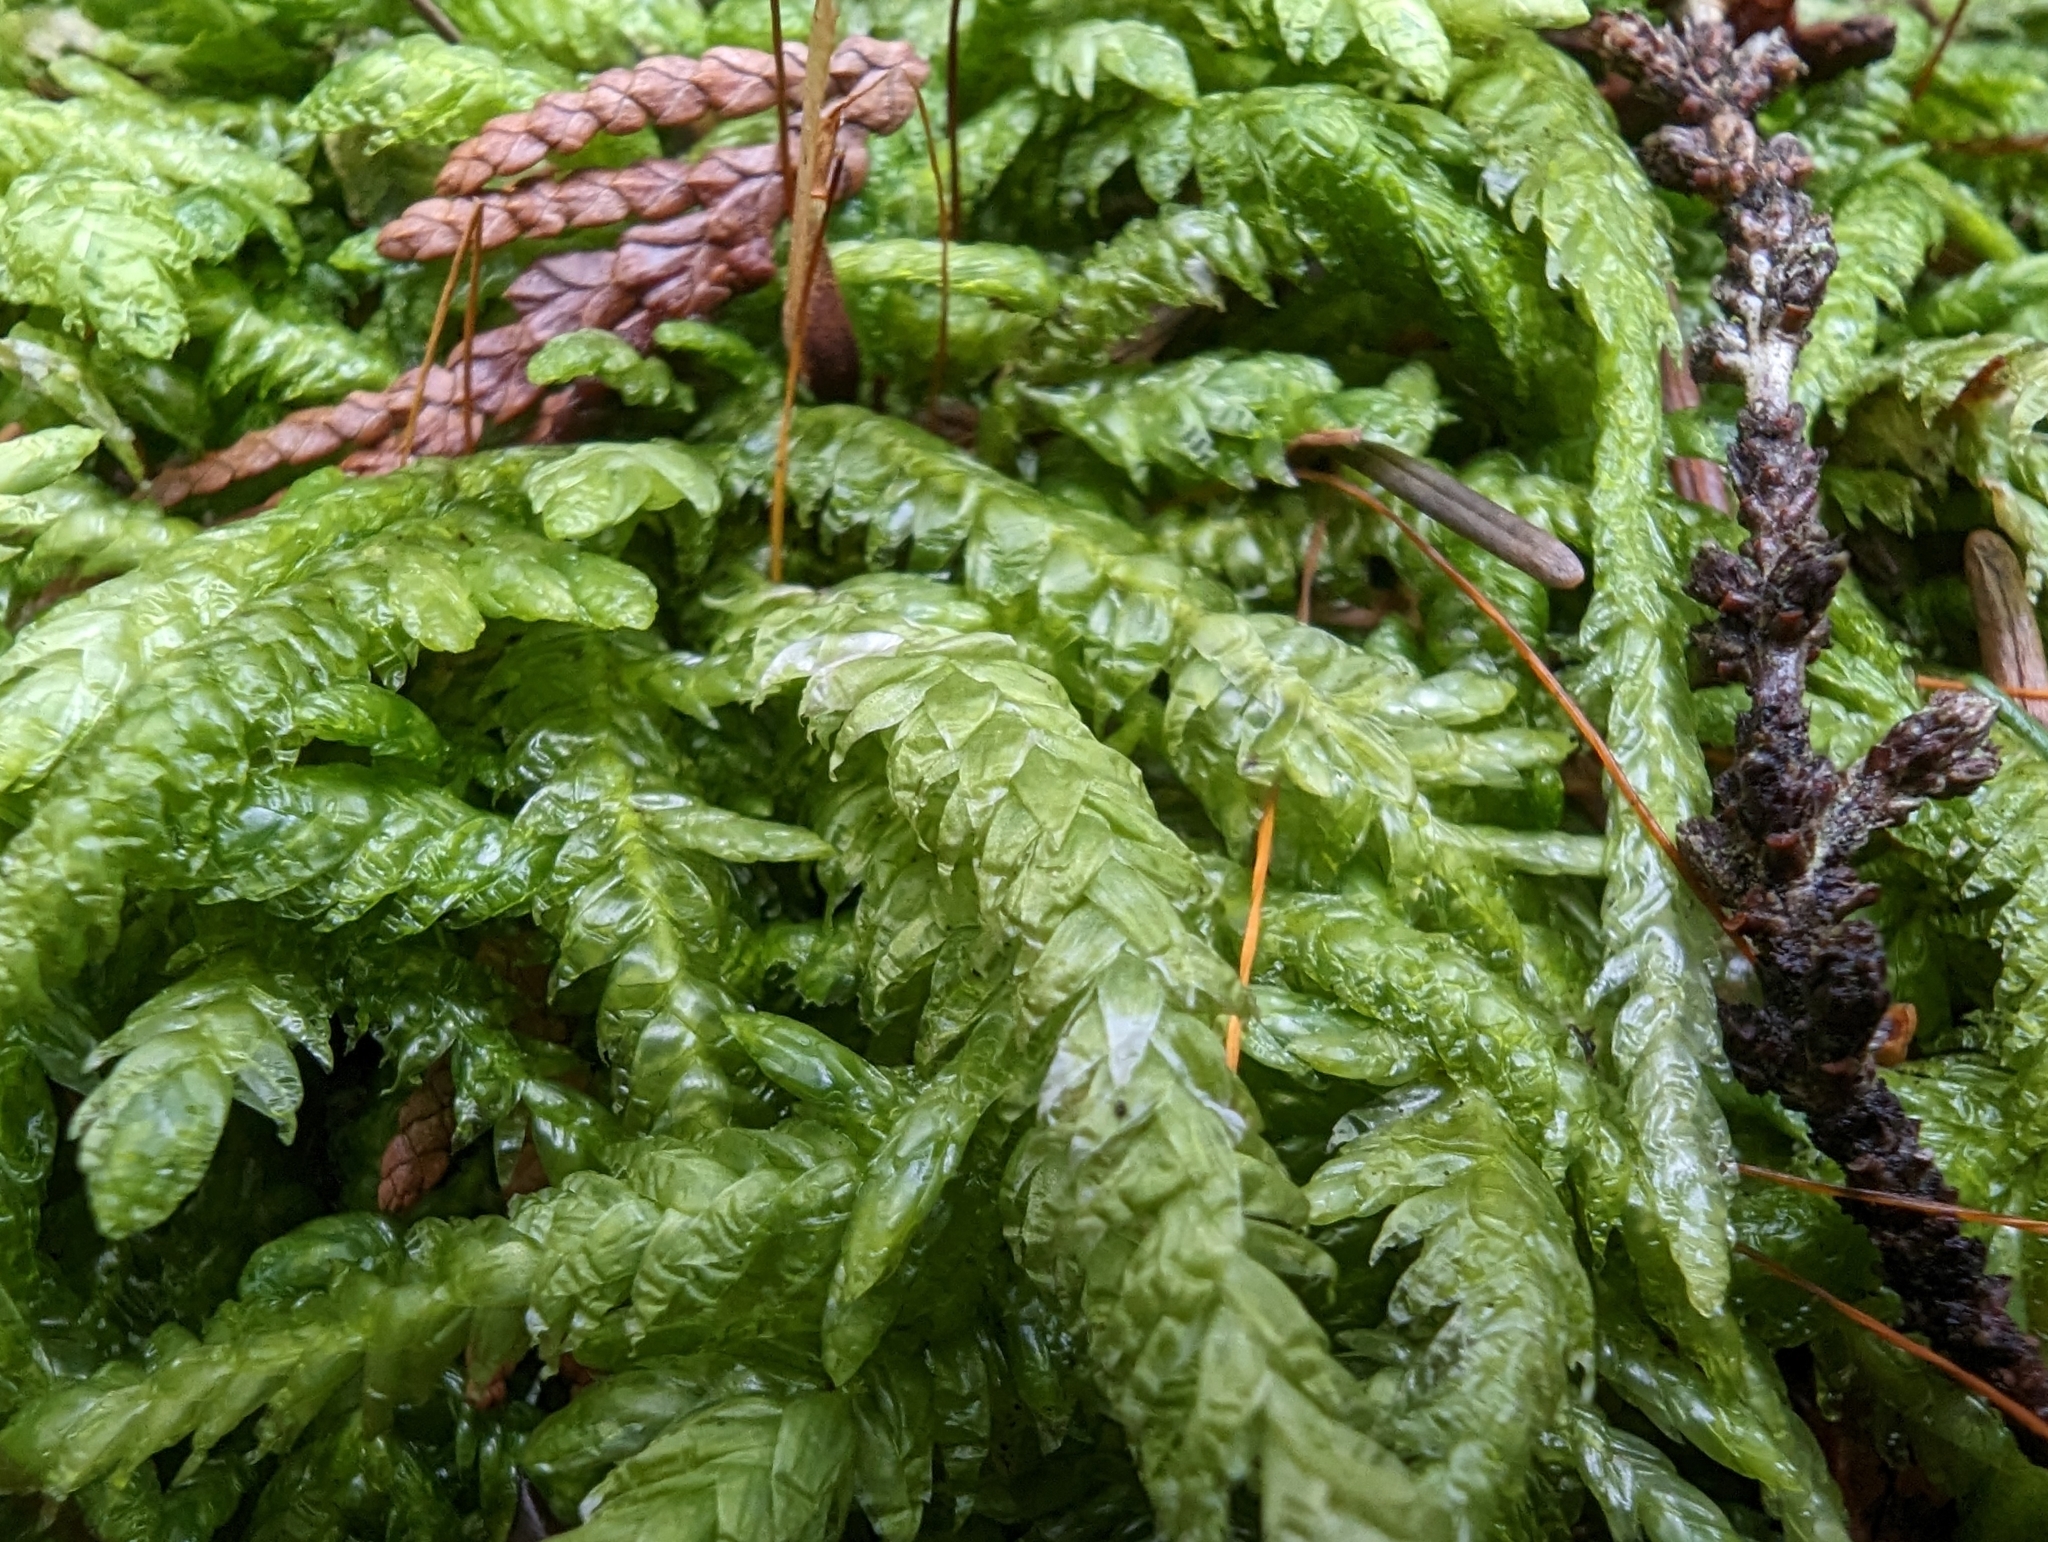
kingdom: Plantae
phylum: Bryophyta
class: Bryopsida
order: Hypnales
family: Plagiotheciaceae
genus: Plagiothecium
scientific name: Plagiothecium undulatum
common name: Waved silk-moss
